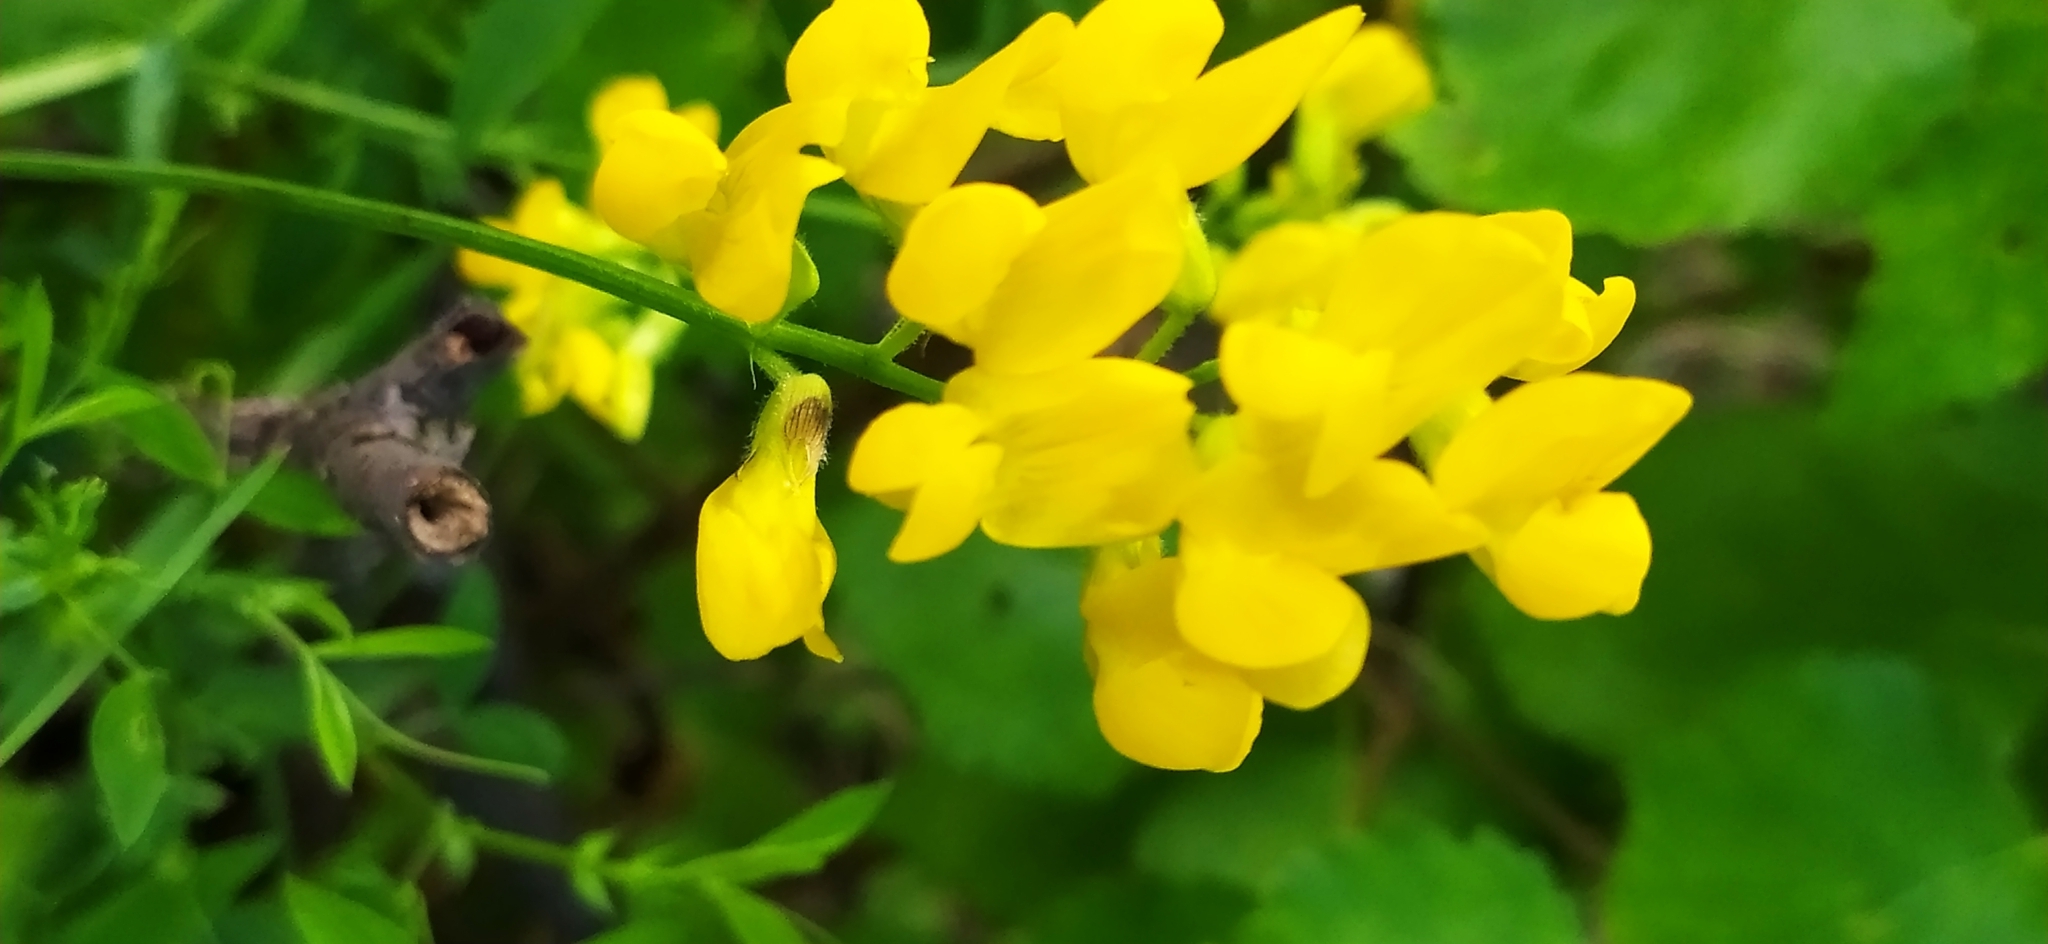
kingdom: Plantae
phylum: Tracheophyta
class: Magnoliopsida
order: Fabales
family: Fabaceae
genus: Lathyrus
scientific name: Lathyrus pratensis
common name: Meadow vetchling
